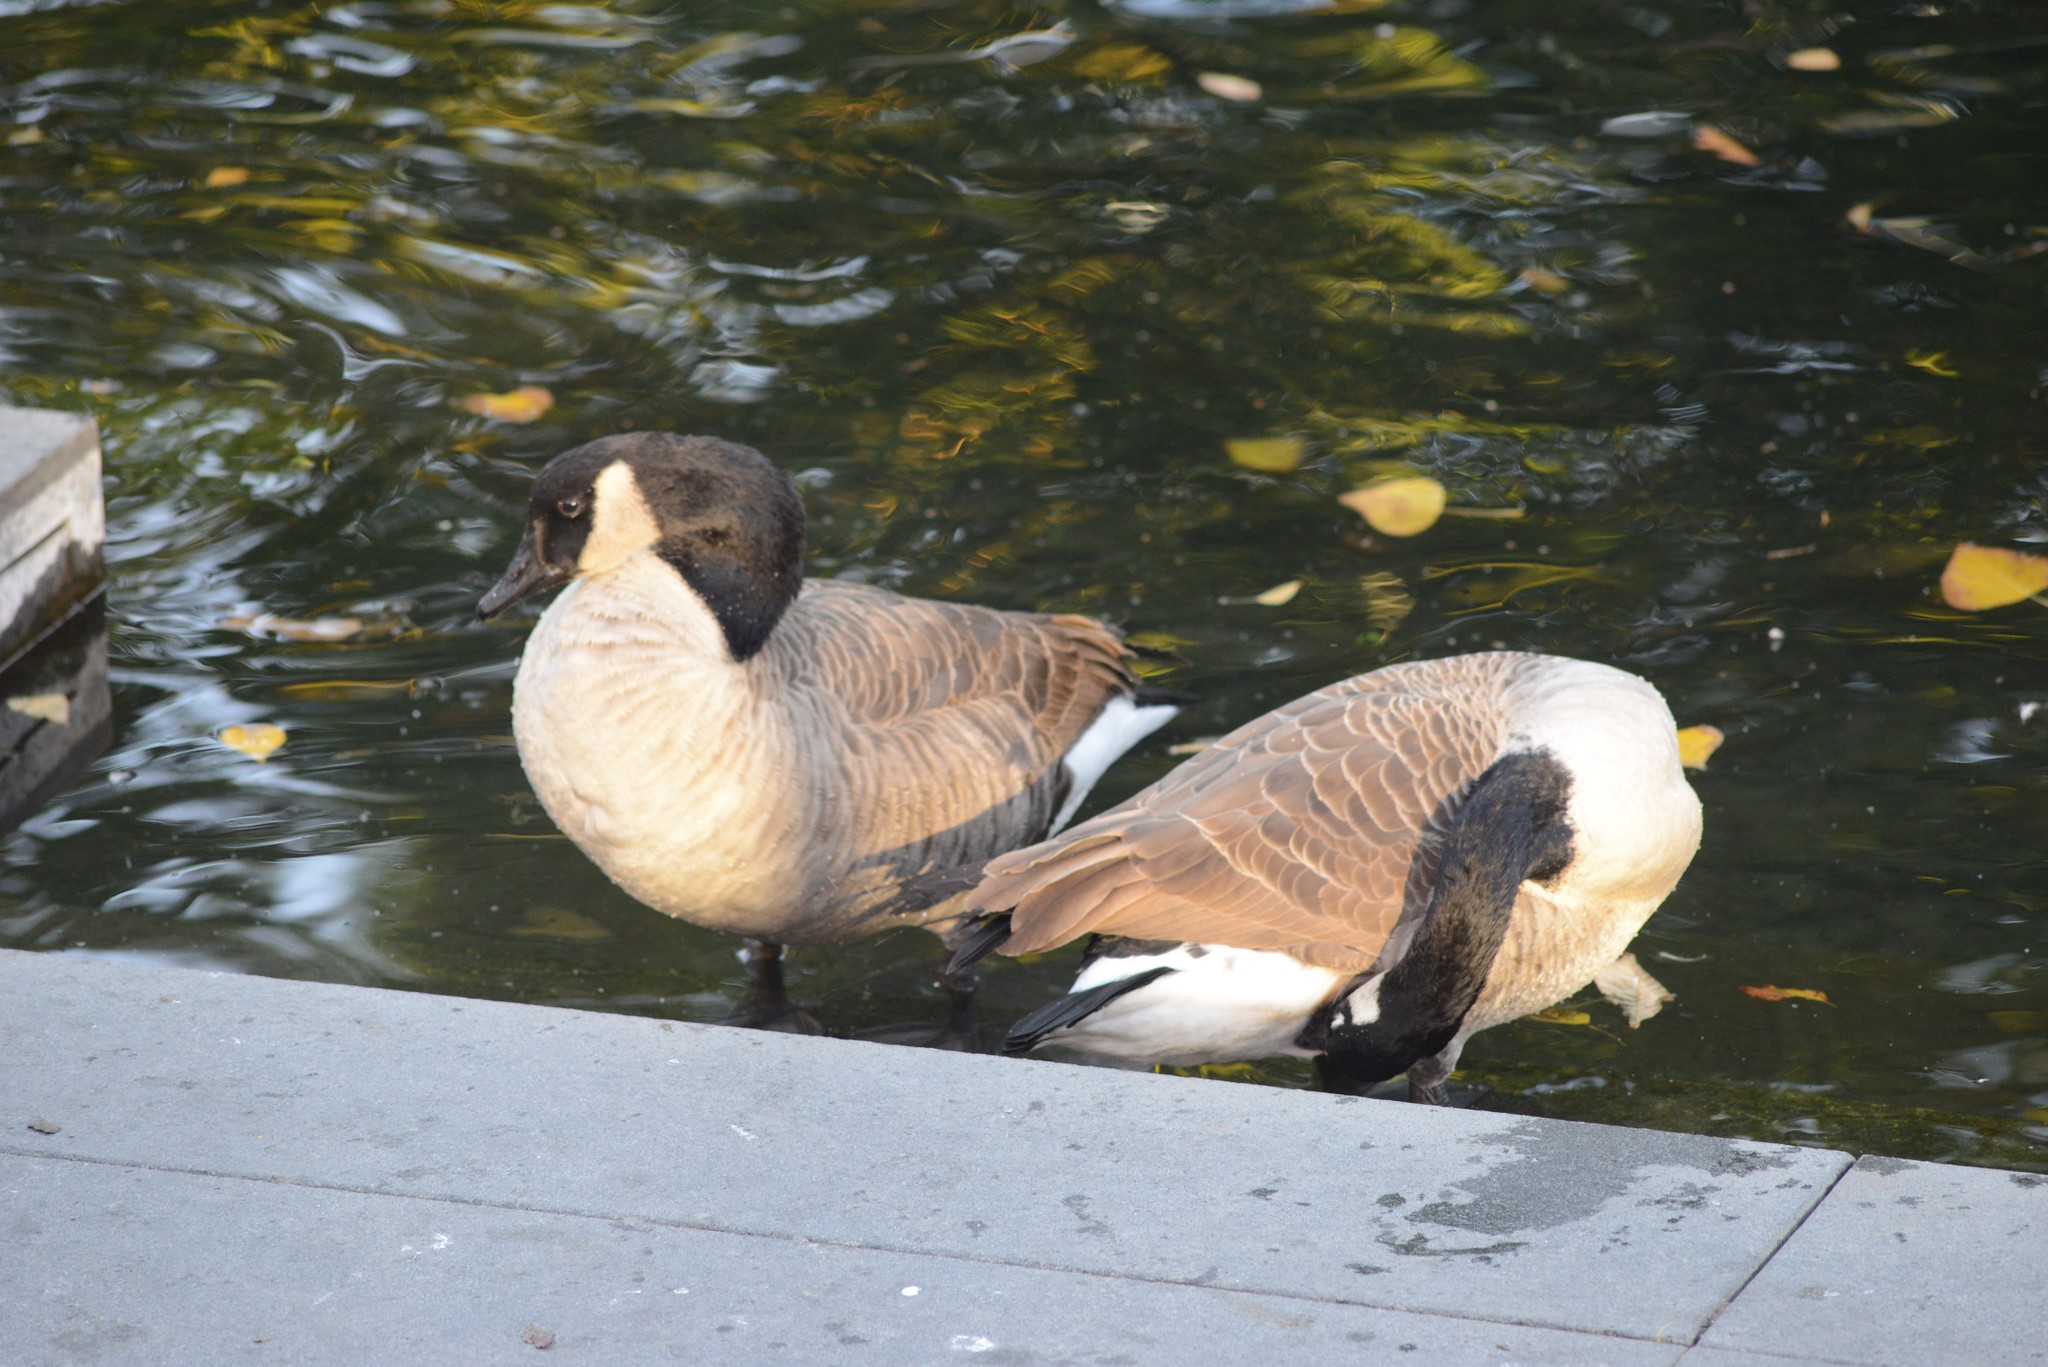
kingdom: Animalia
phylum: Chordata
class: Aves
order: Anseriformes
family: Anatidae
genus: Branta
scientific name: Branta canadensis
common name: Canada goose
